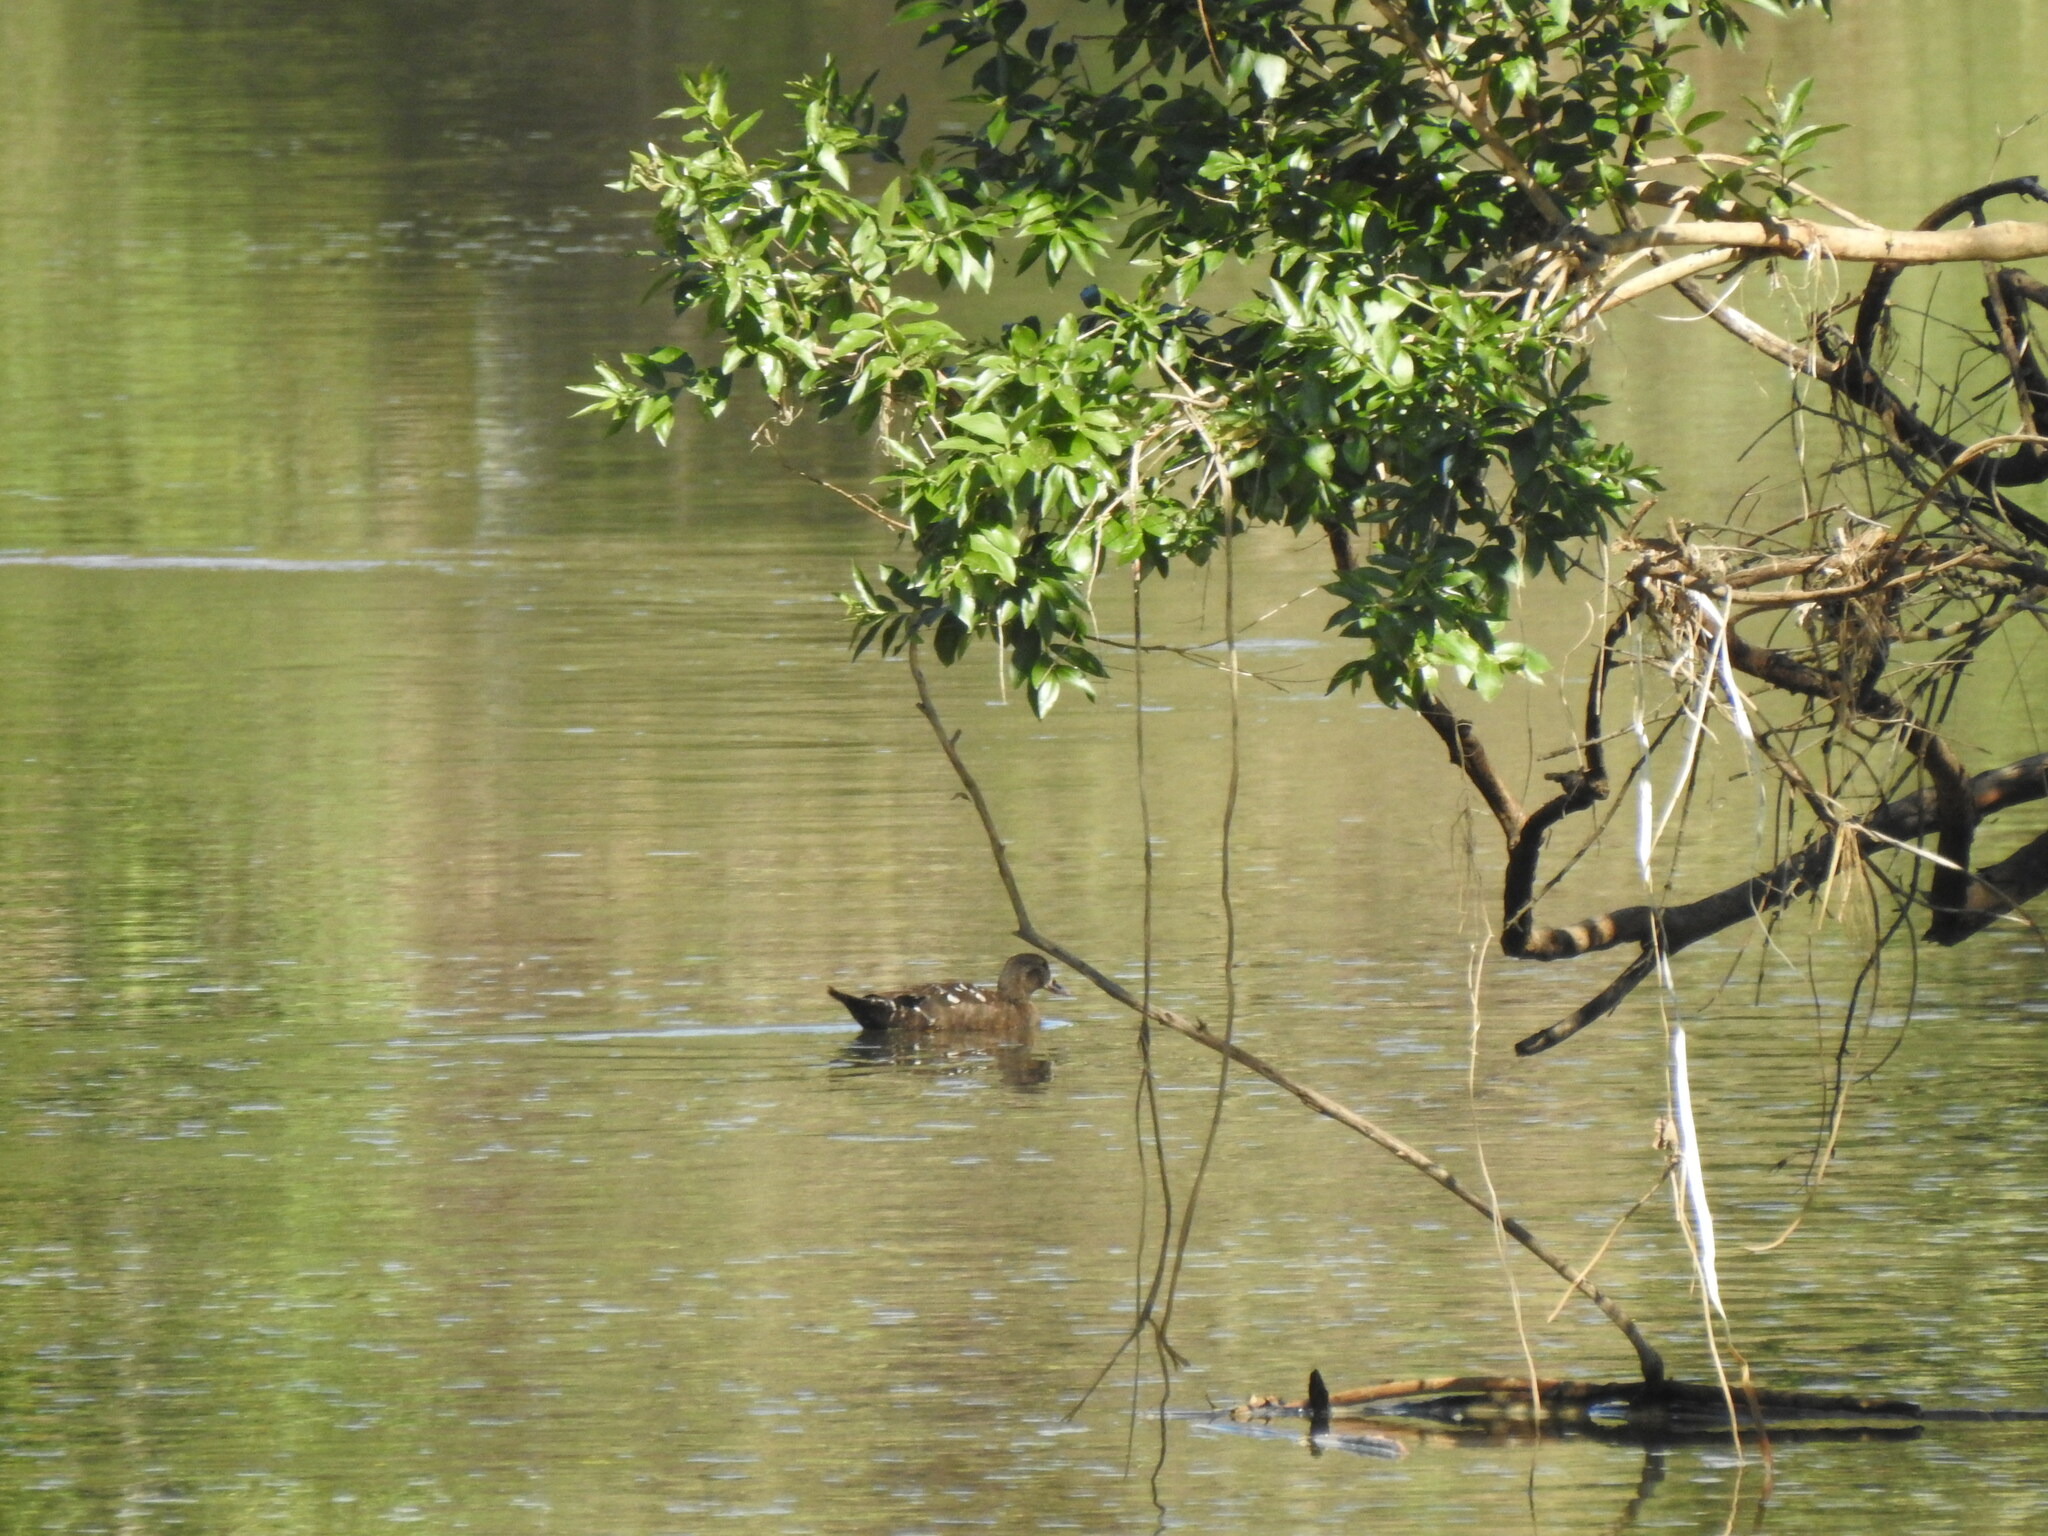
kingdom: Animalia
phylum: Chordata
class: Aves
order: Anseriformes
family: Anatidae
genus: Anas
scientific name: Anas sparsa
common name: African black duck
